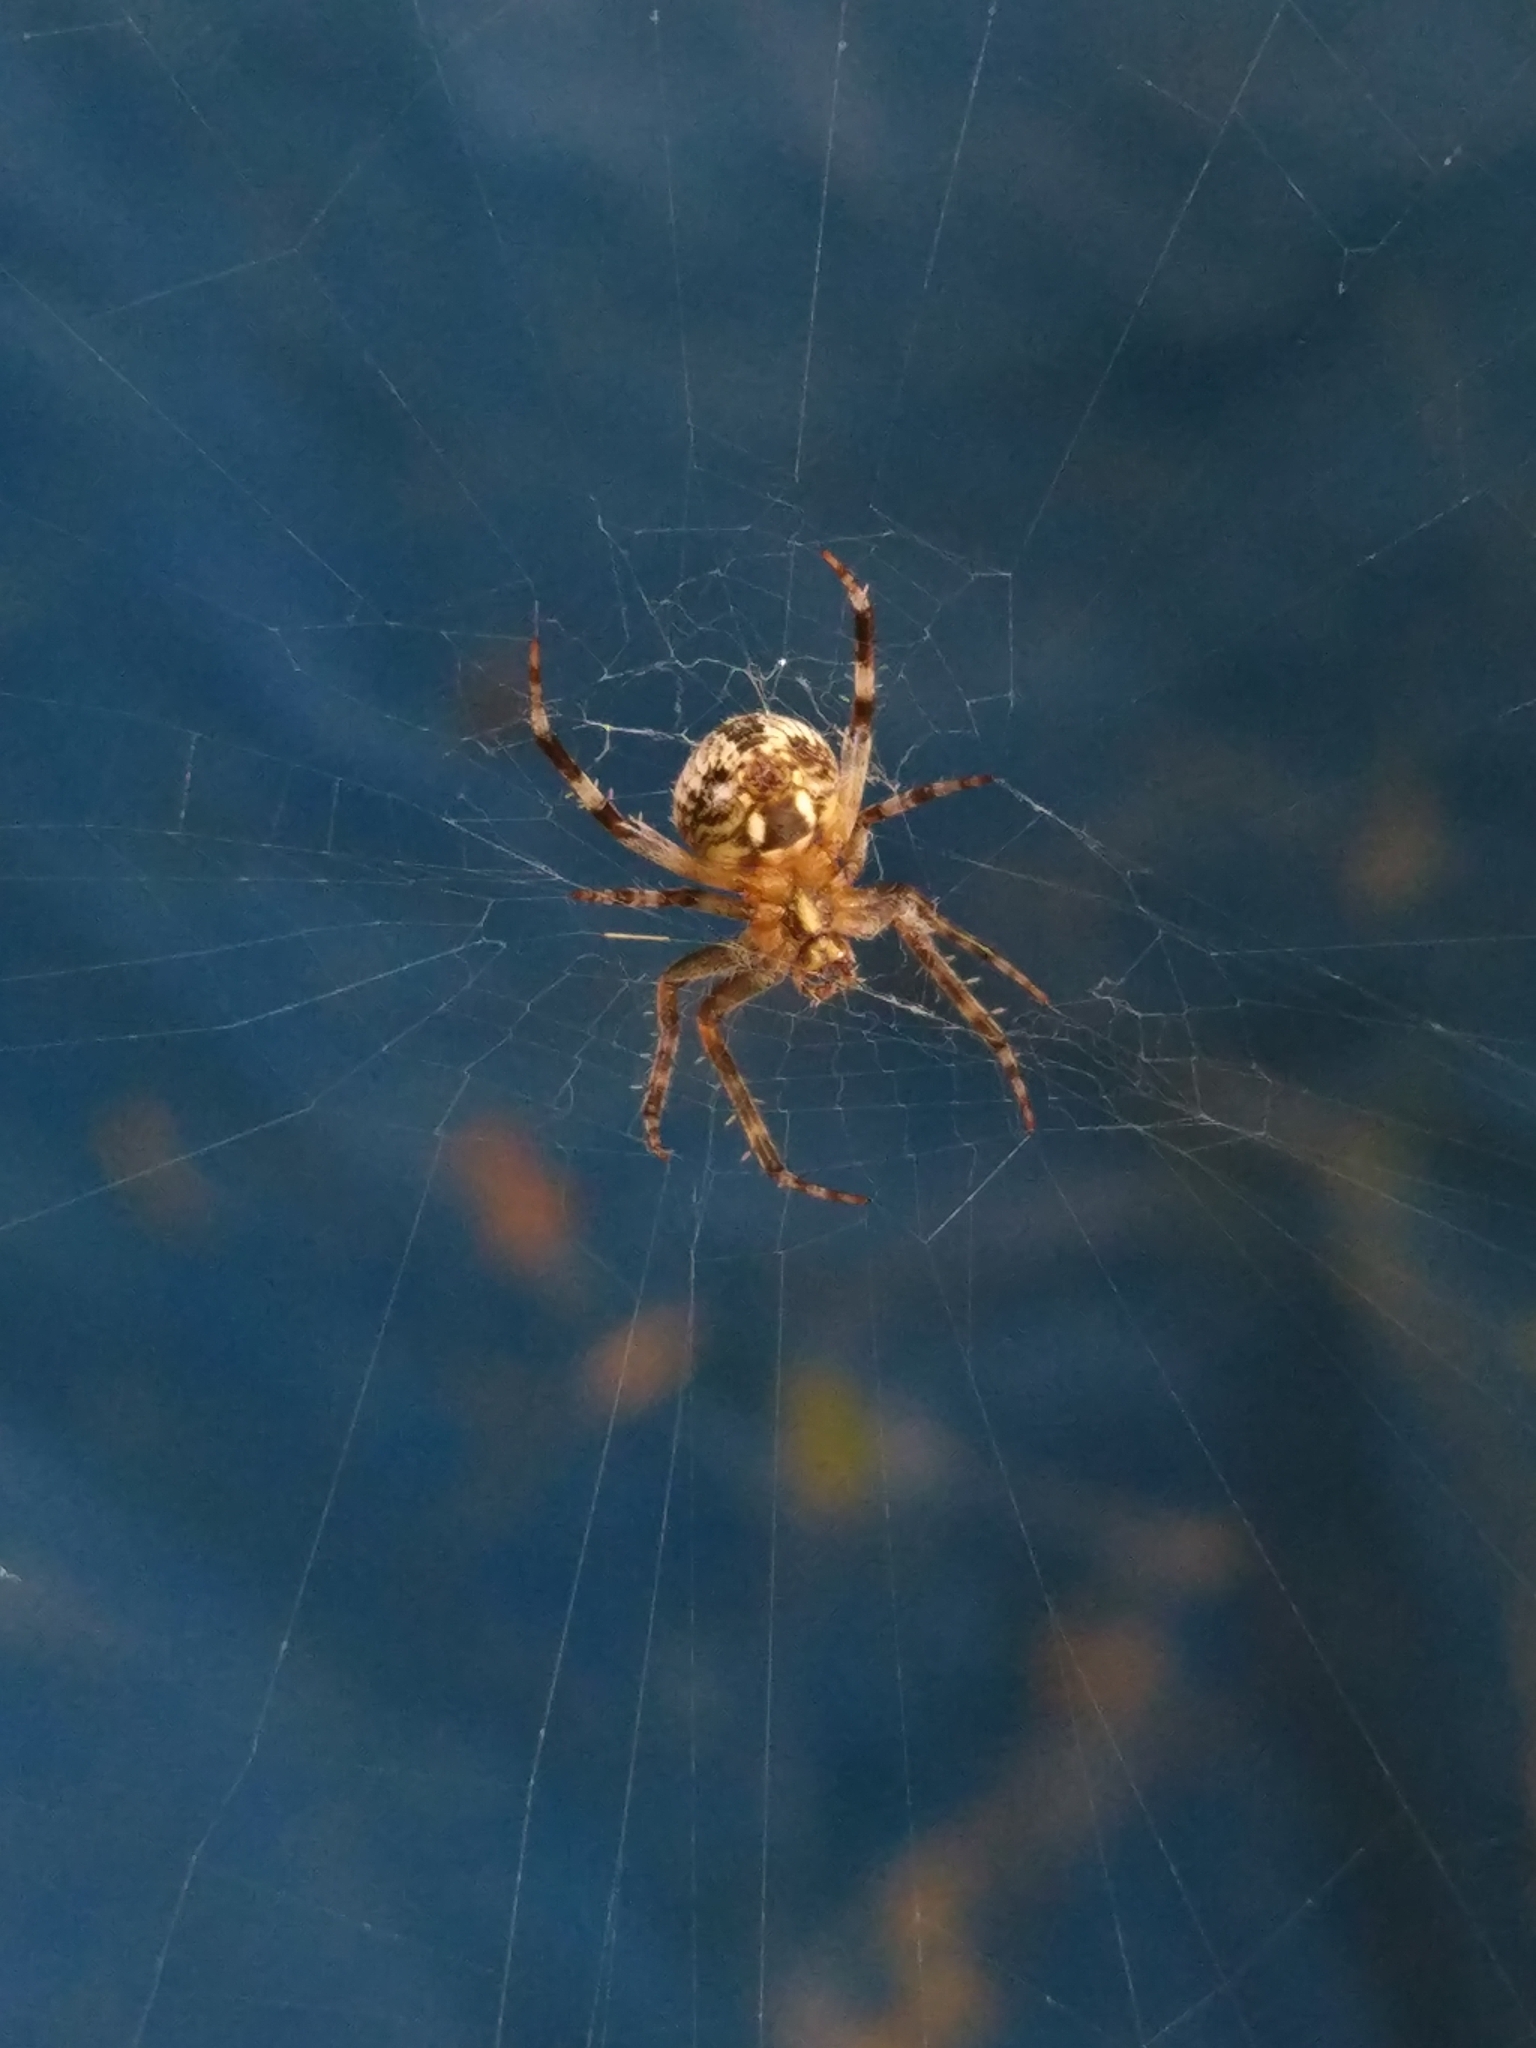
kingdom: Animalia
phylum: Arthropoda
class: Arachnida
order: Araneae
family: Araneidae
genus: Neoscona
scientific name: Neoscona spasskyi
